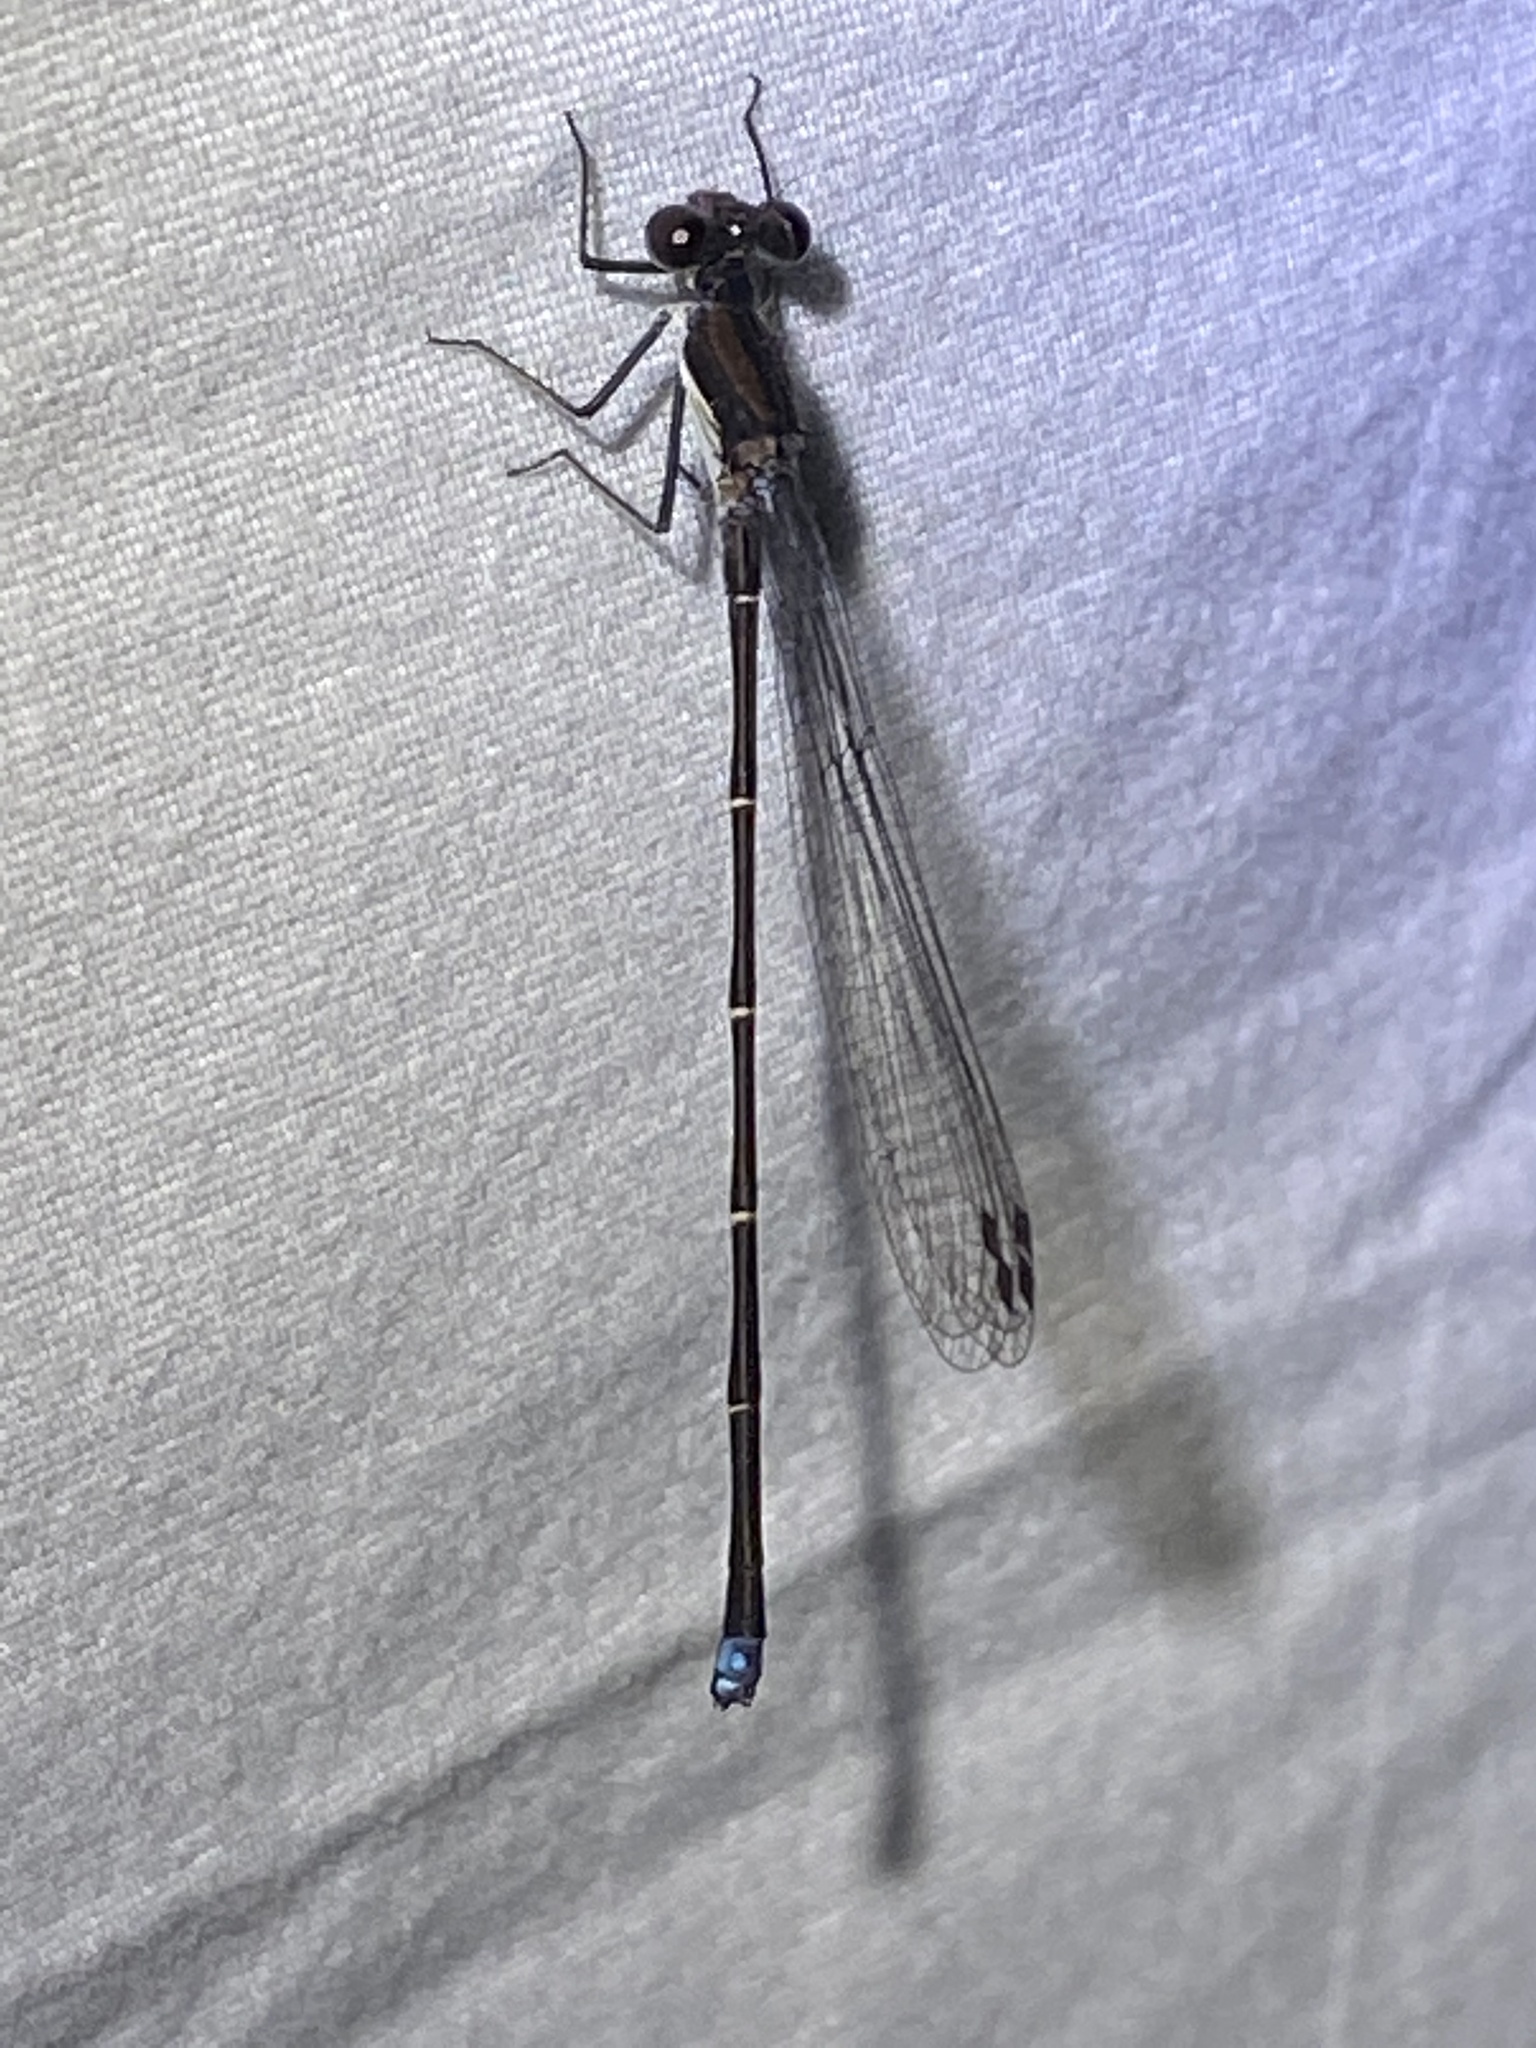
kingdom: Animalia
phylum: Arthropoda
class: Insecta
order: Odonata
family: Coenagrionidae
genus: Argia
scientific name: Argia tibialis
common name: Blue-tipped dancer
